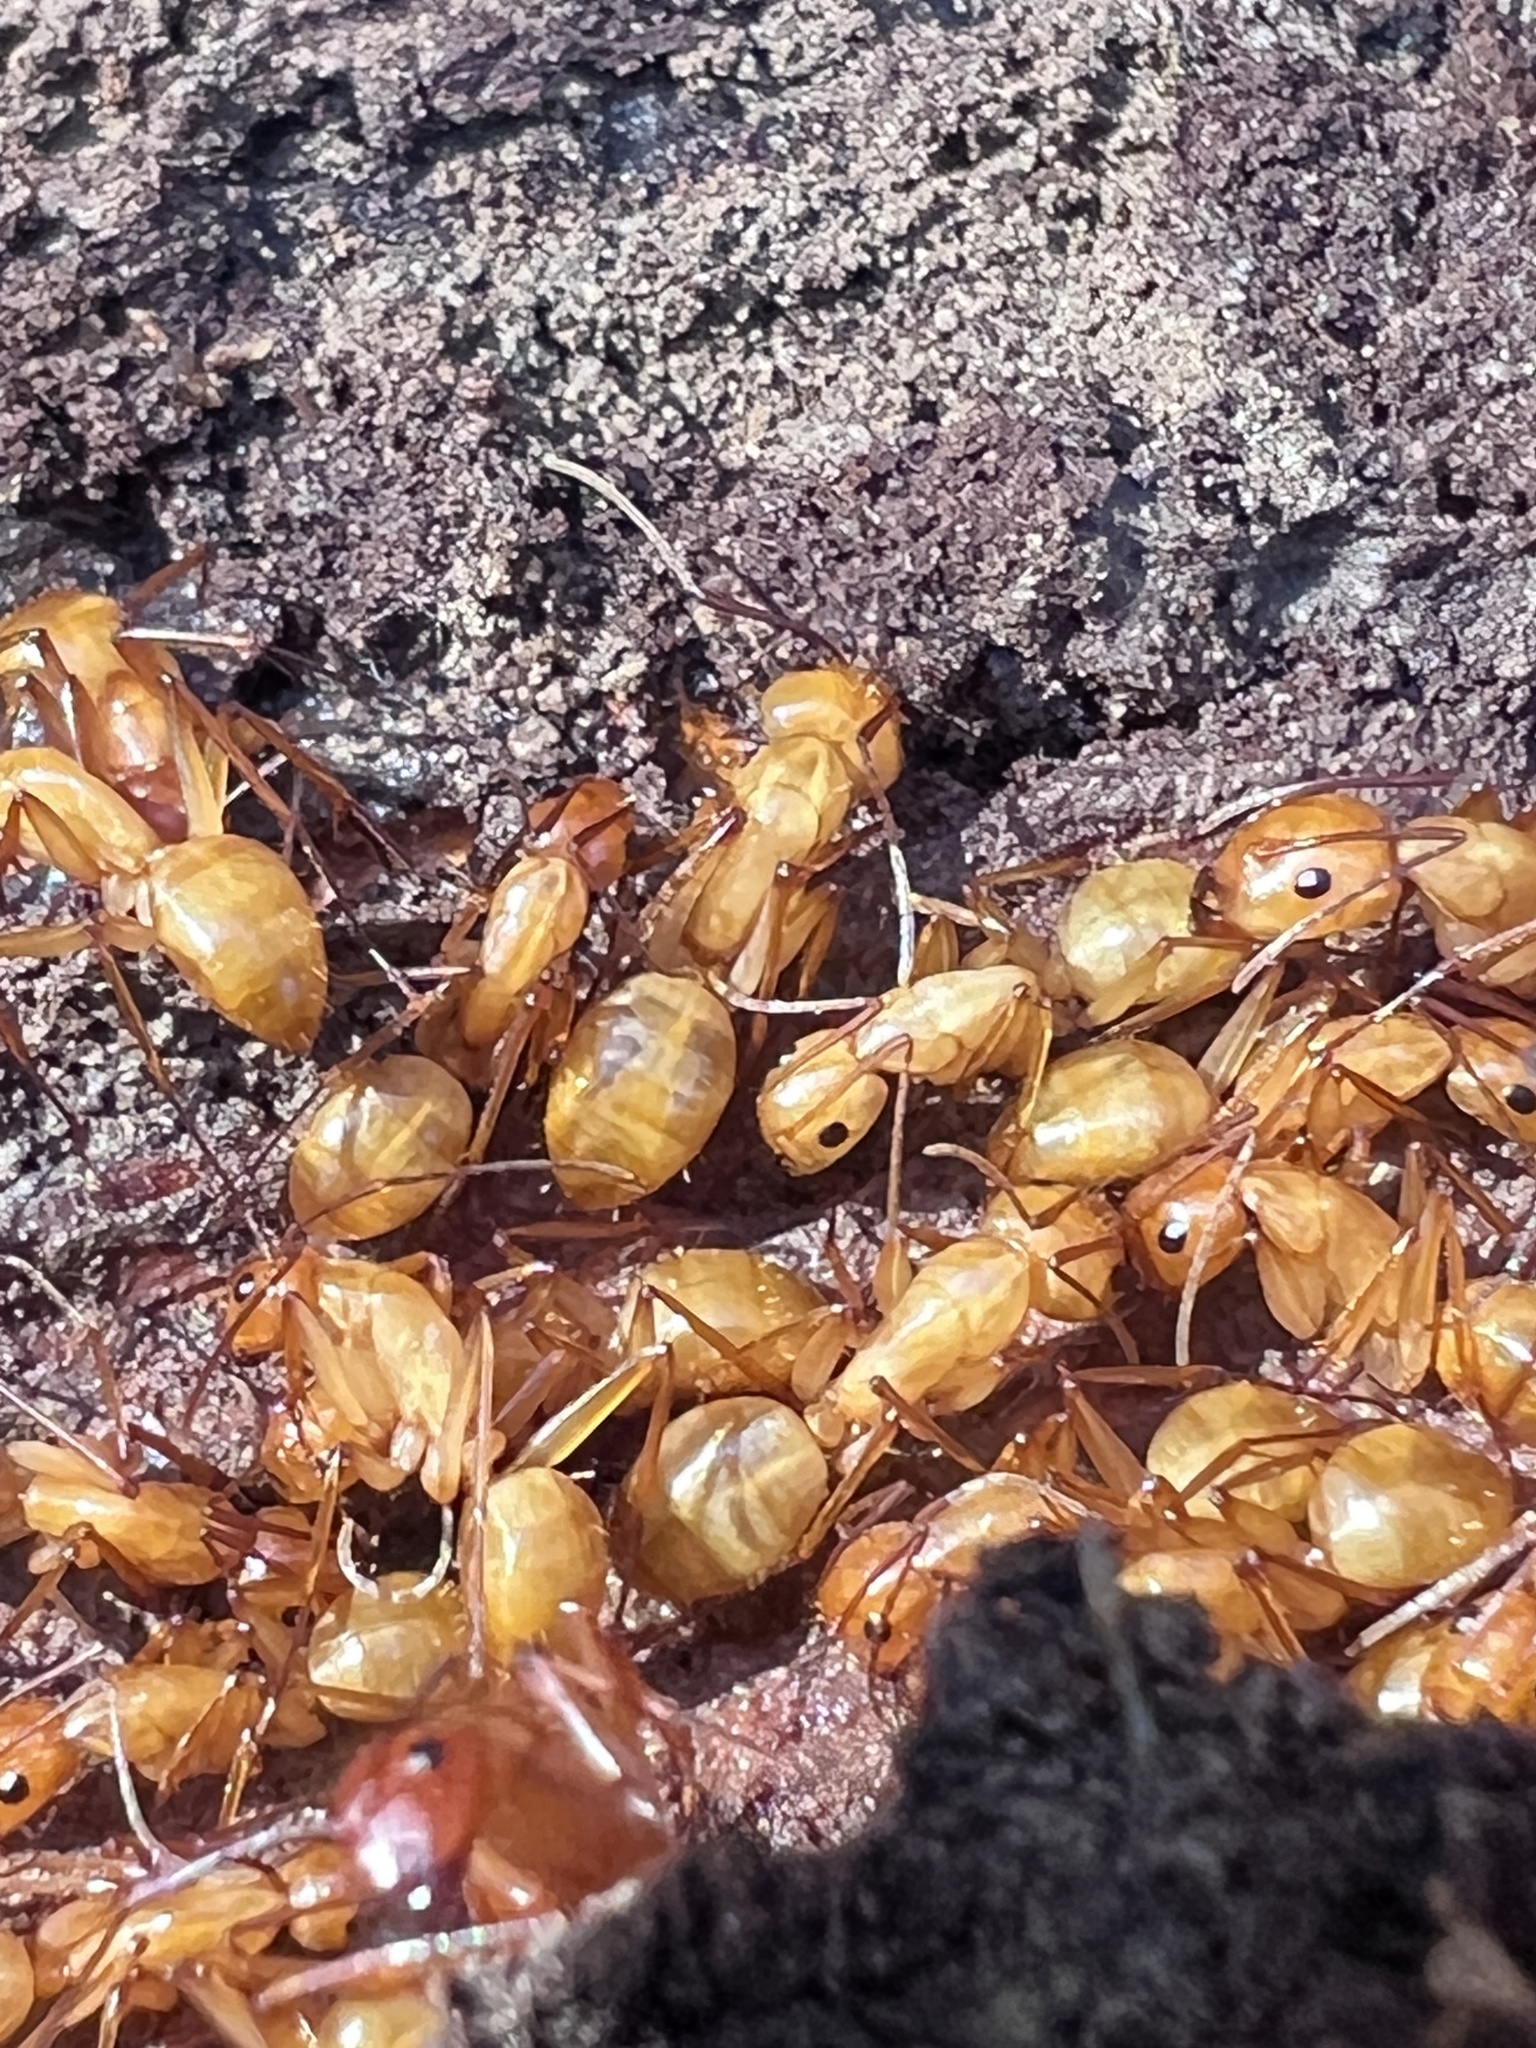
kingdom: Animalia
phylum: Arthropoda
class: Insecta
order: Hymenoptera
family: Formicidae
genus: Camponotus
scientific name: Camponotus castaneus
